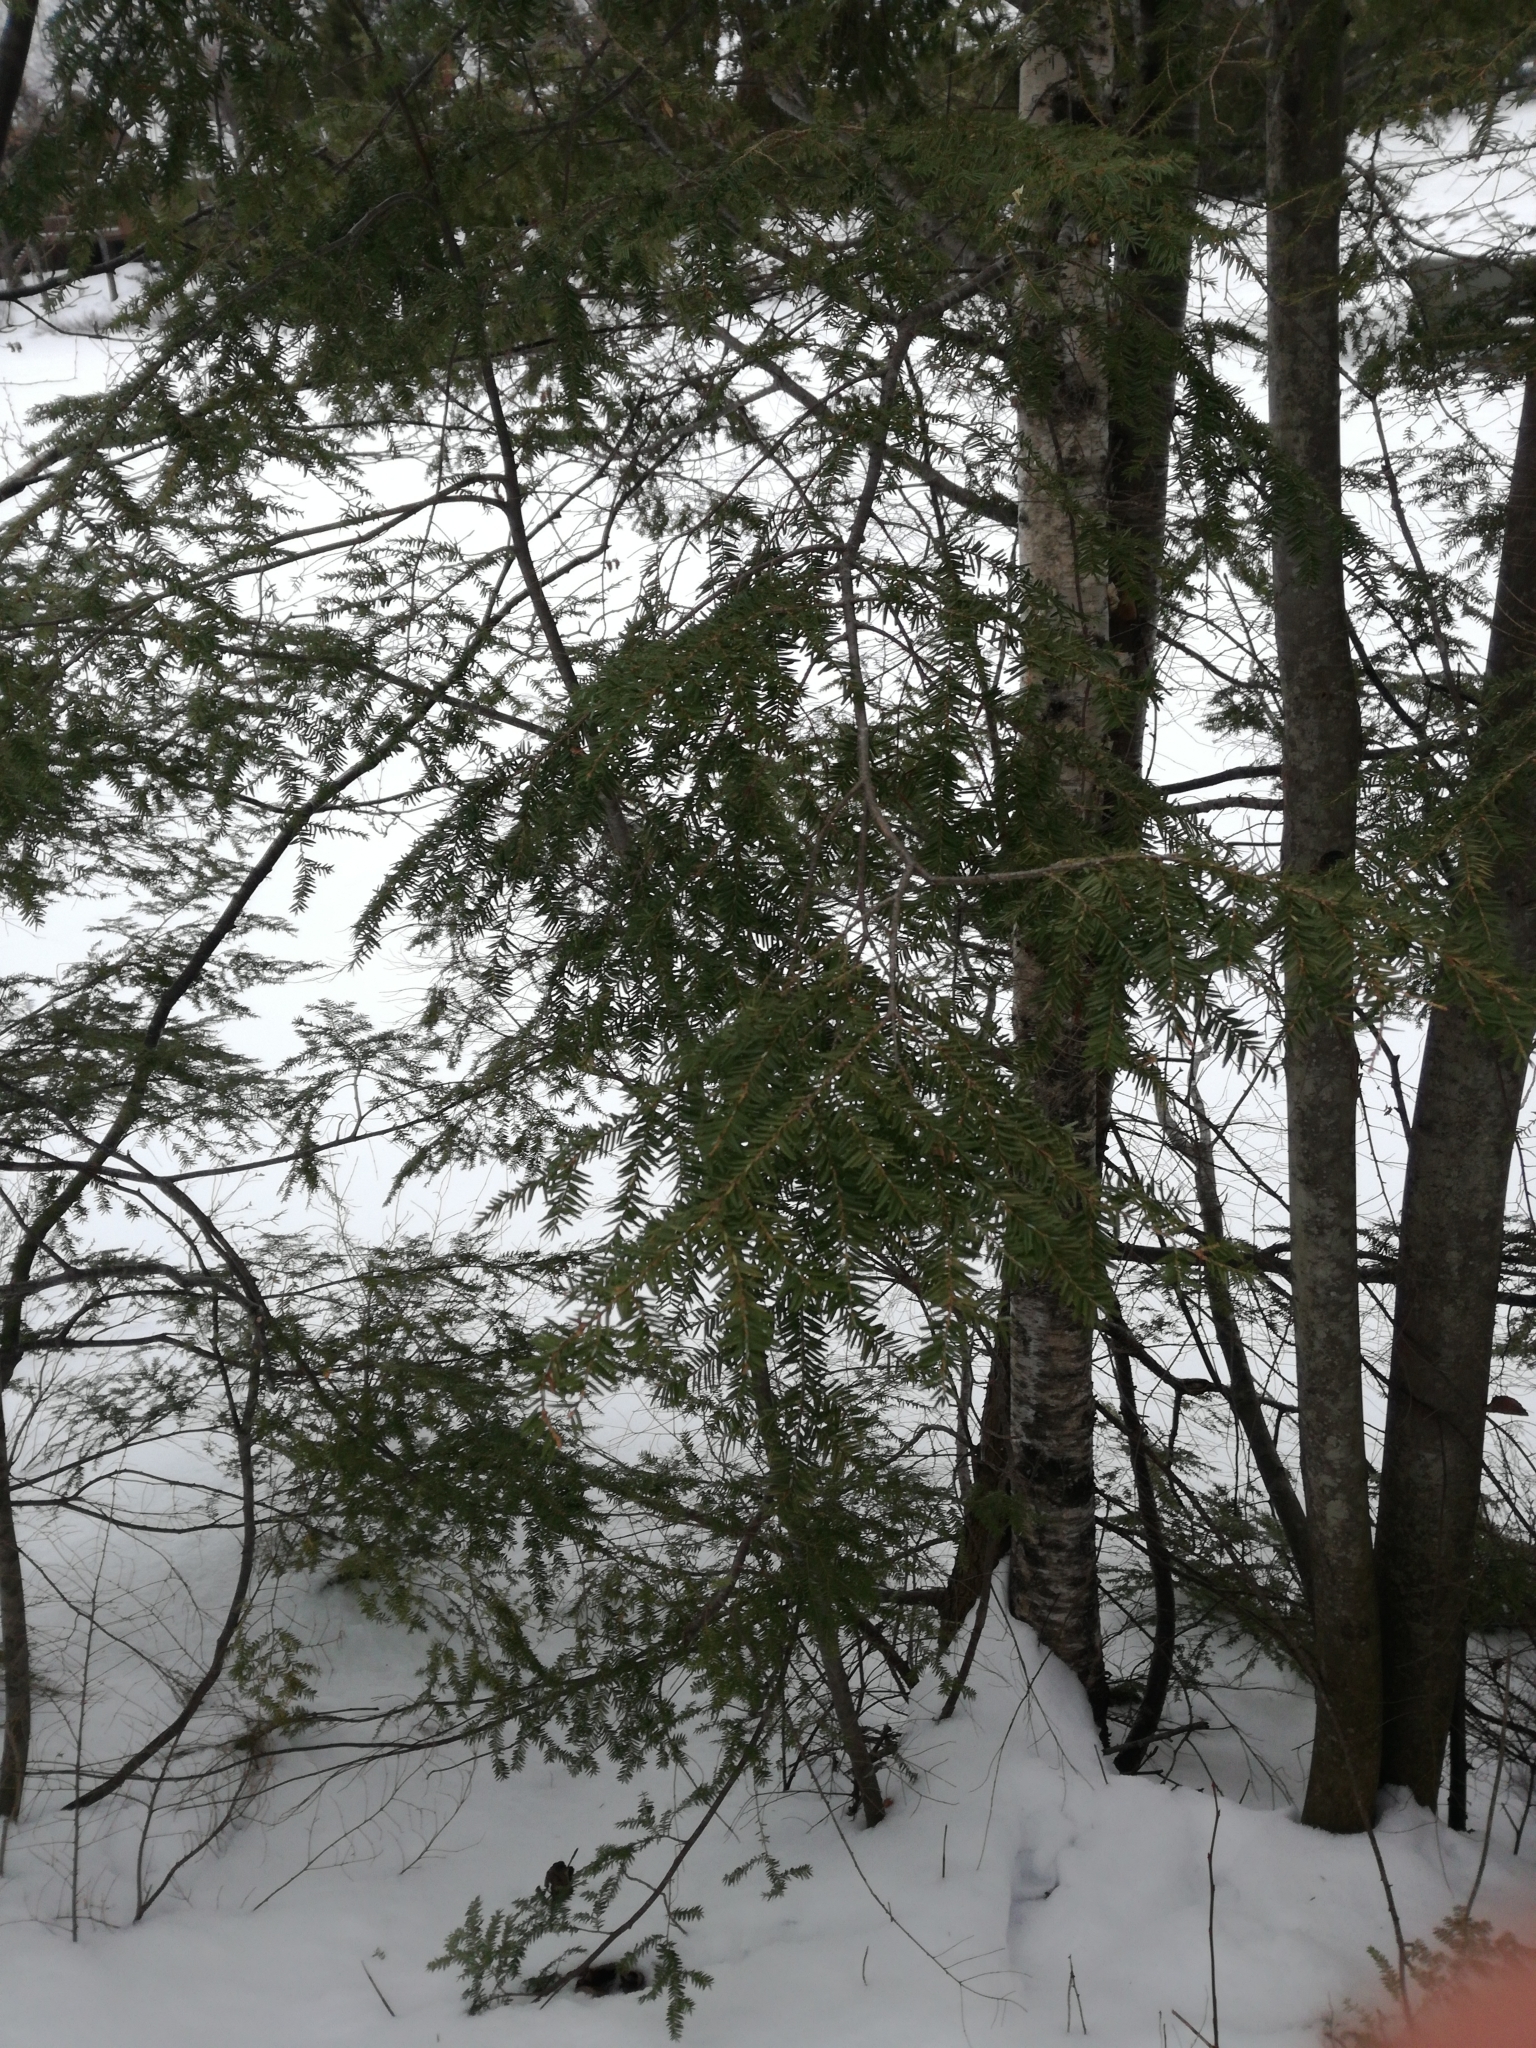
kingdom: Plantae
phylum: Tracheophyta
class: Pinopsida
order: Pinales
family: Pinaceae
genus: Tsuga
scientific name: Tsuga canadensis
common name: Eastern hemlock
